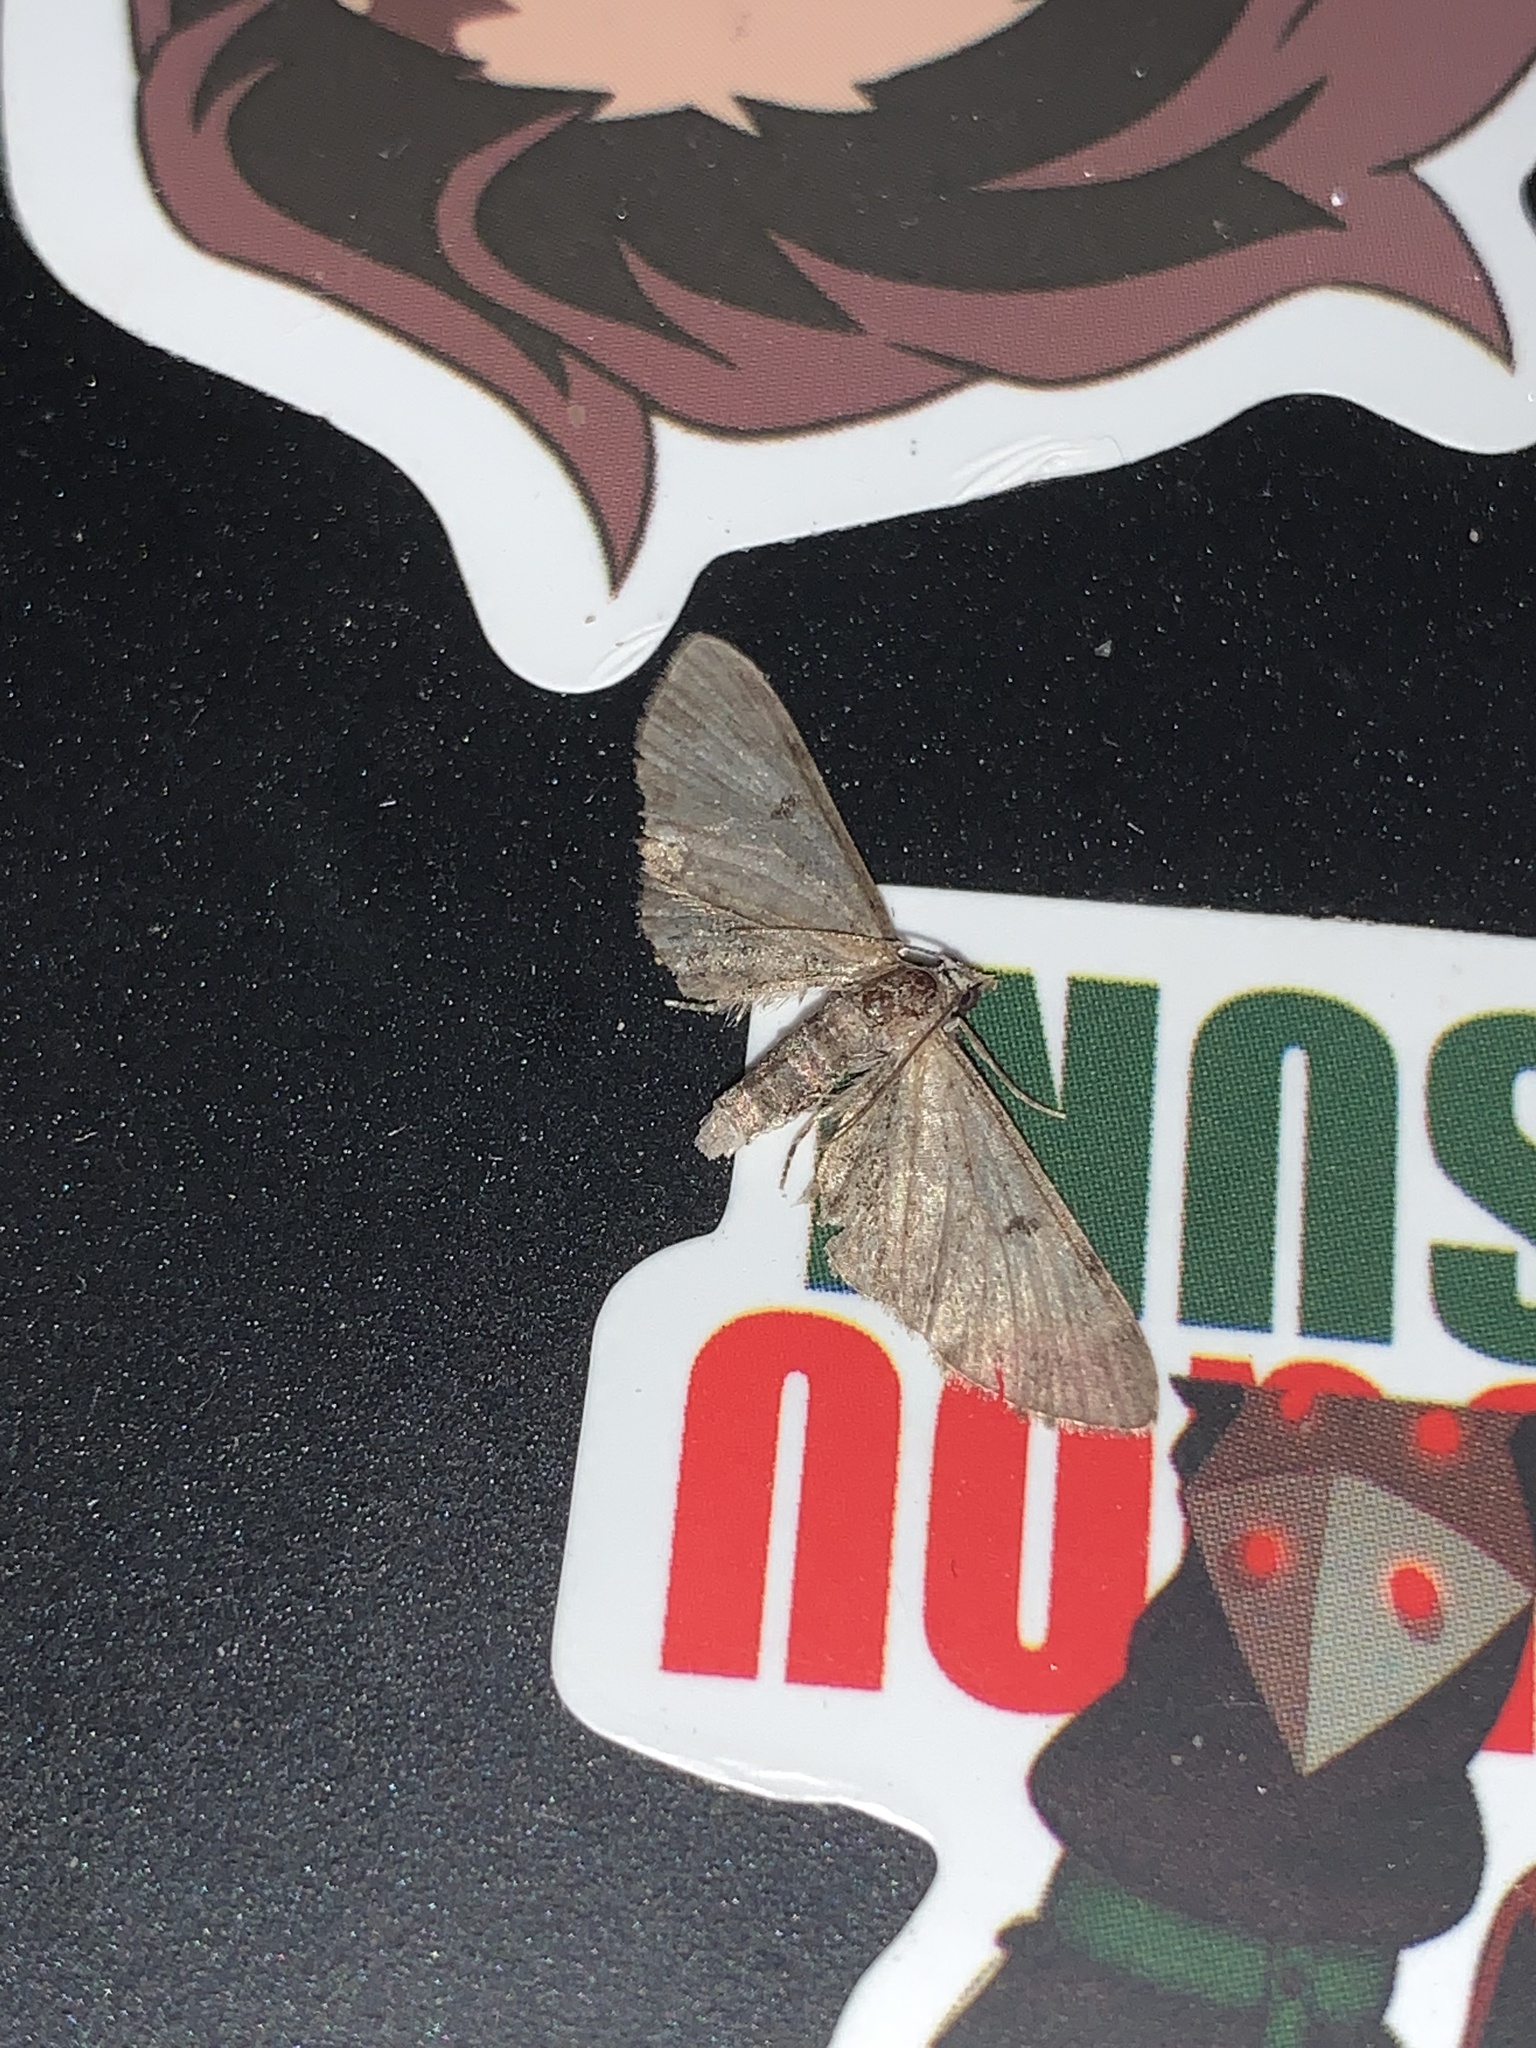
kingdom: Animalia
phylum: Arthropoda
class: Insecta
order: Lepidoptera
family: Geometridae
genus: Eupithecia
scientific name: Eupithecia miserulata
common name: Common eupithecia
